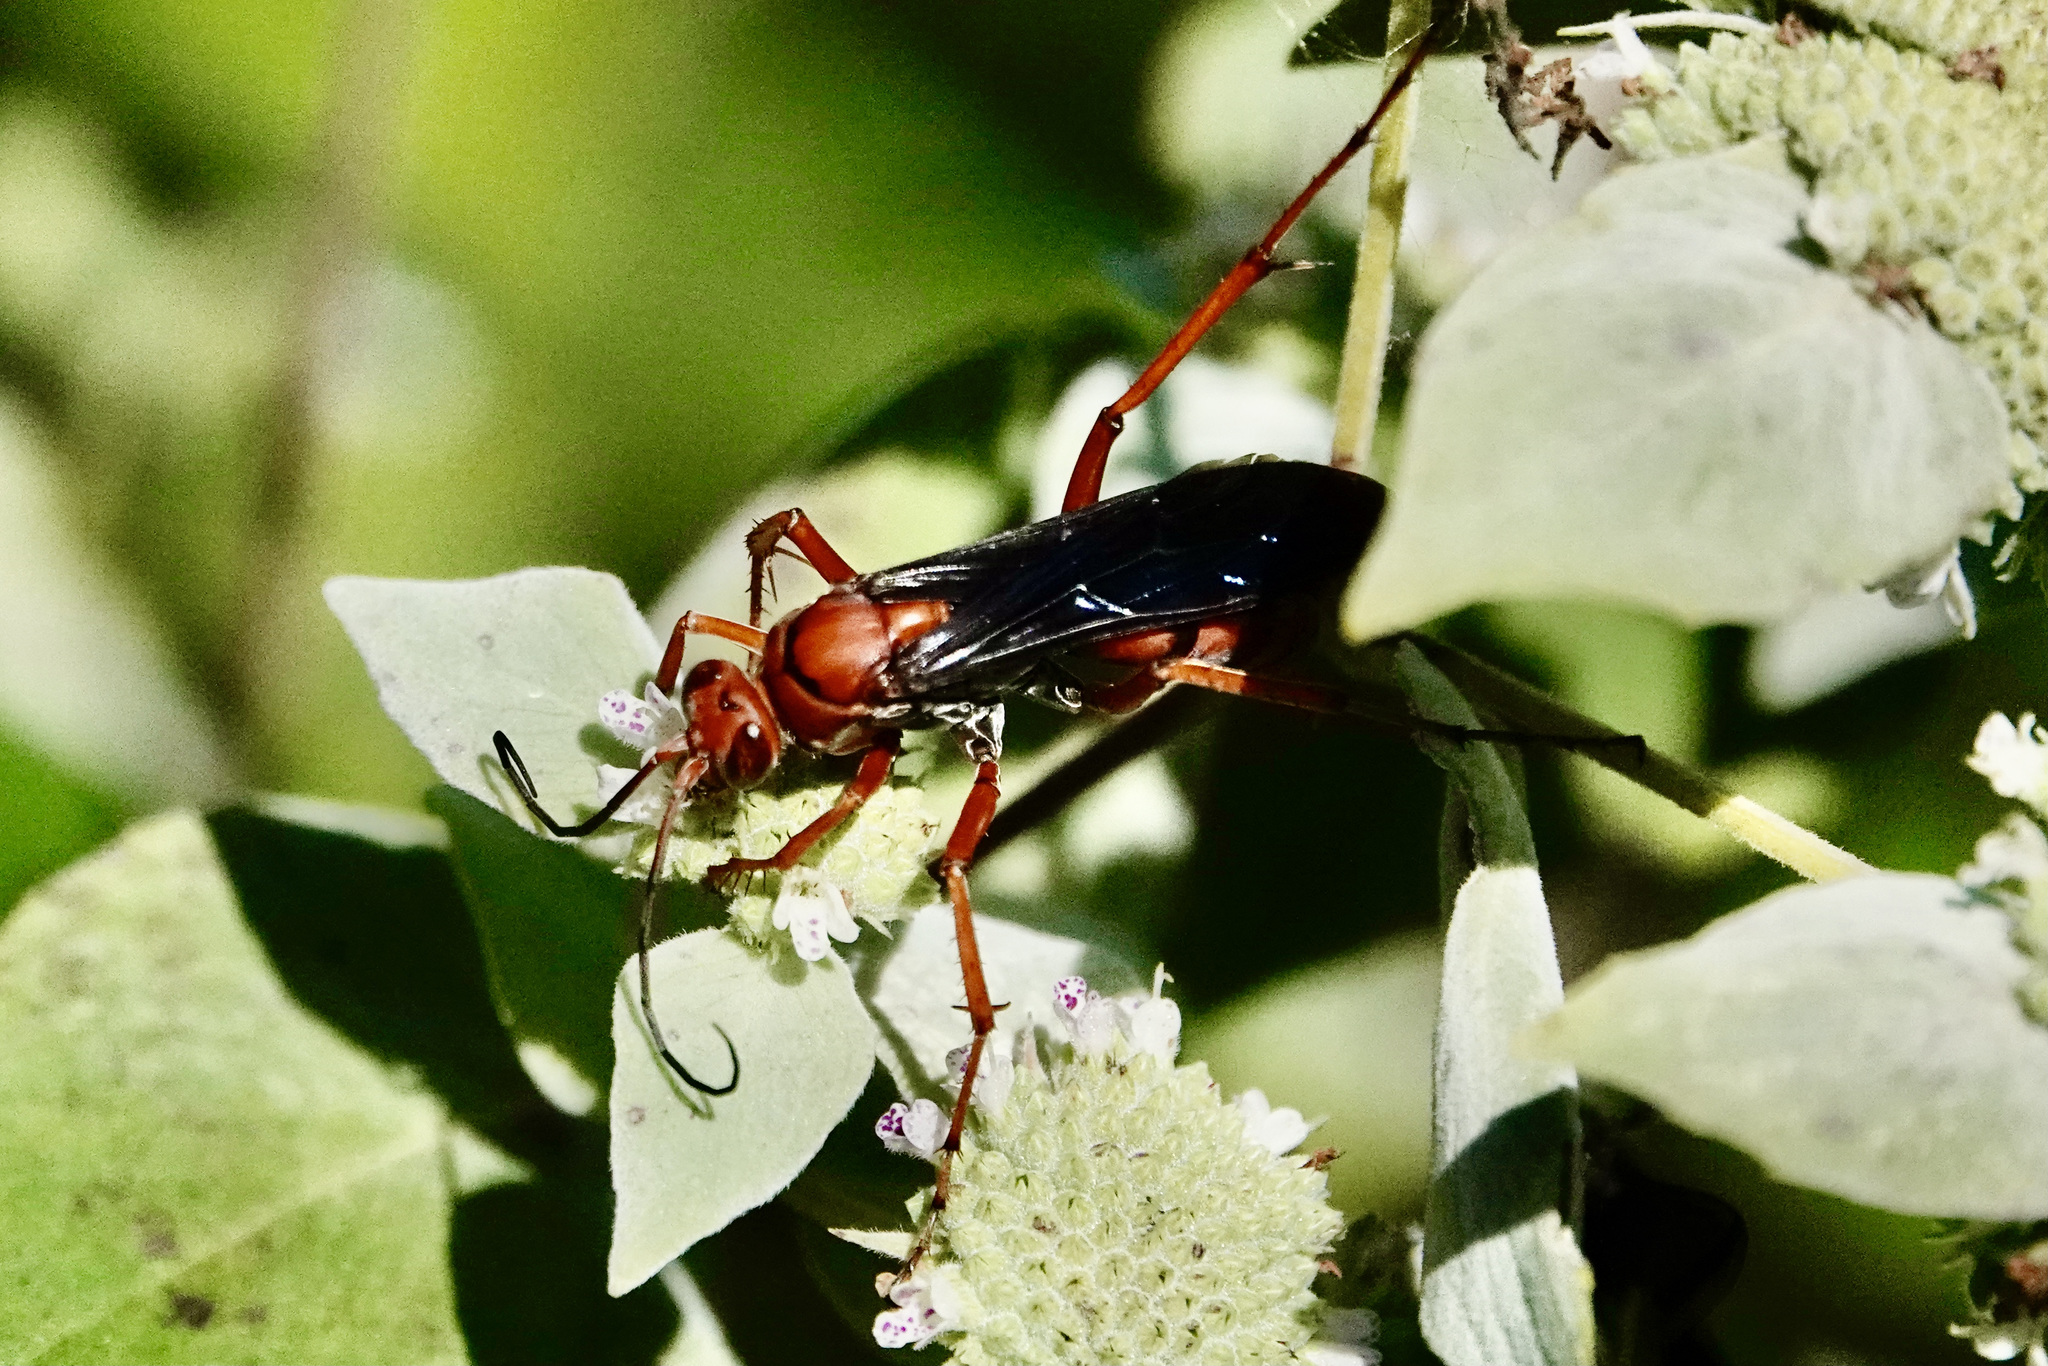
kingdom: Animalia
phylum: Arthropoda
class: Insecta
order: Hymenoptera
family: Pompilidae
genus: Tachypompilus
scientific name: Tachypompilus ferrugineus
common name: Rusty spider wasp
